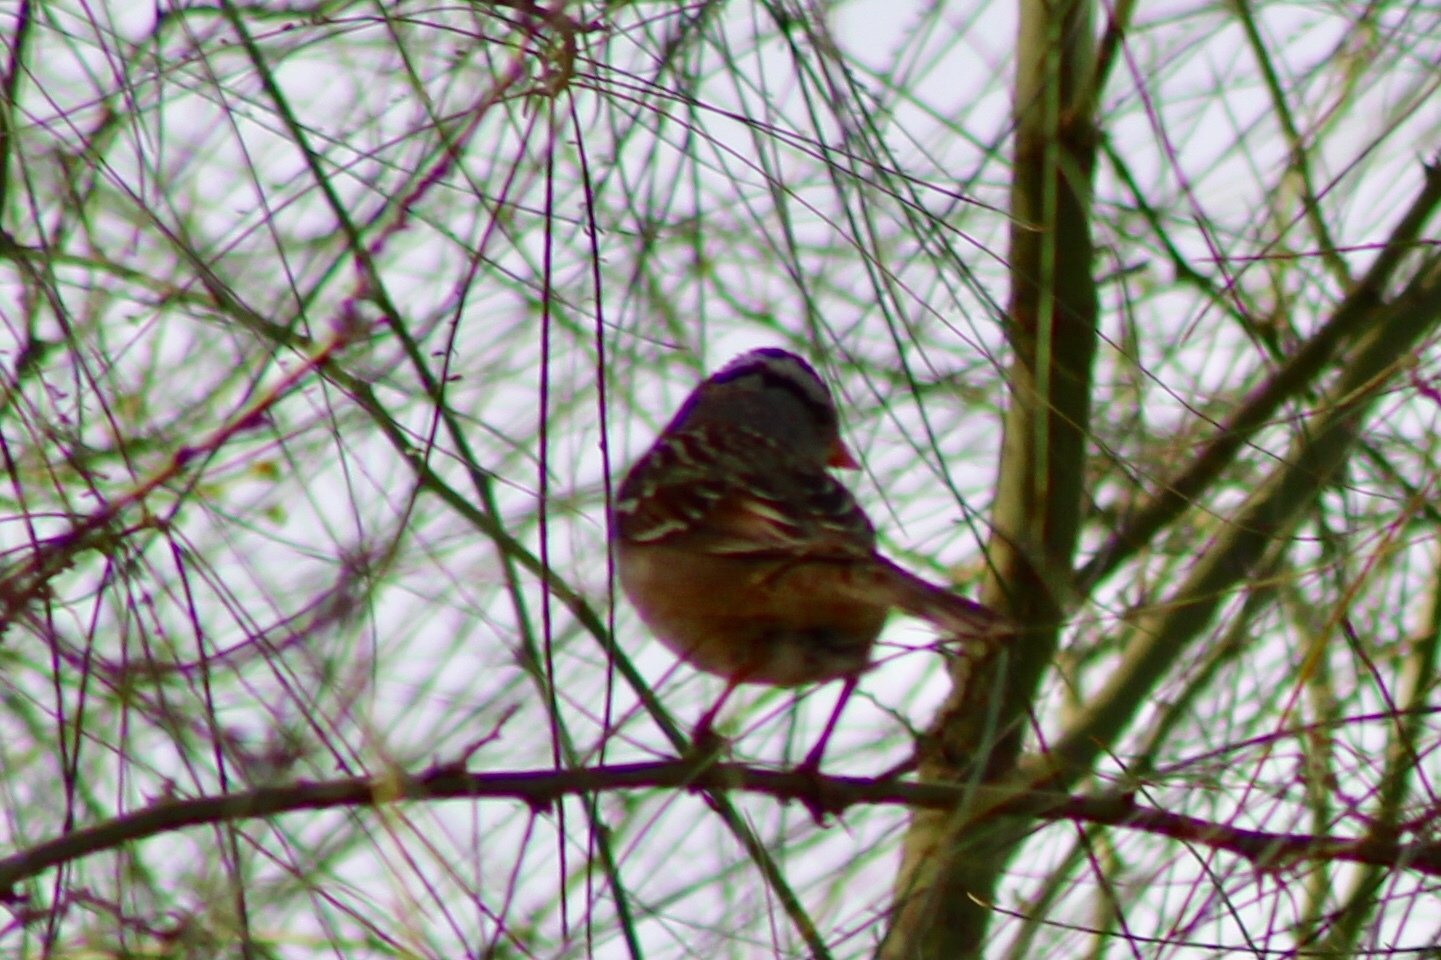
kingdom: Animalia
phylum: Chordata
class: Aves
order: Passeriformes
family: Passerellidae
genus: Zonotrichia
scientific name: Zonotrichia leucophrys
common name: White-crowned sparrow
